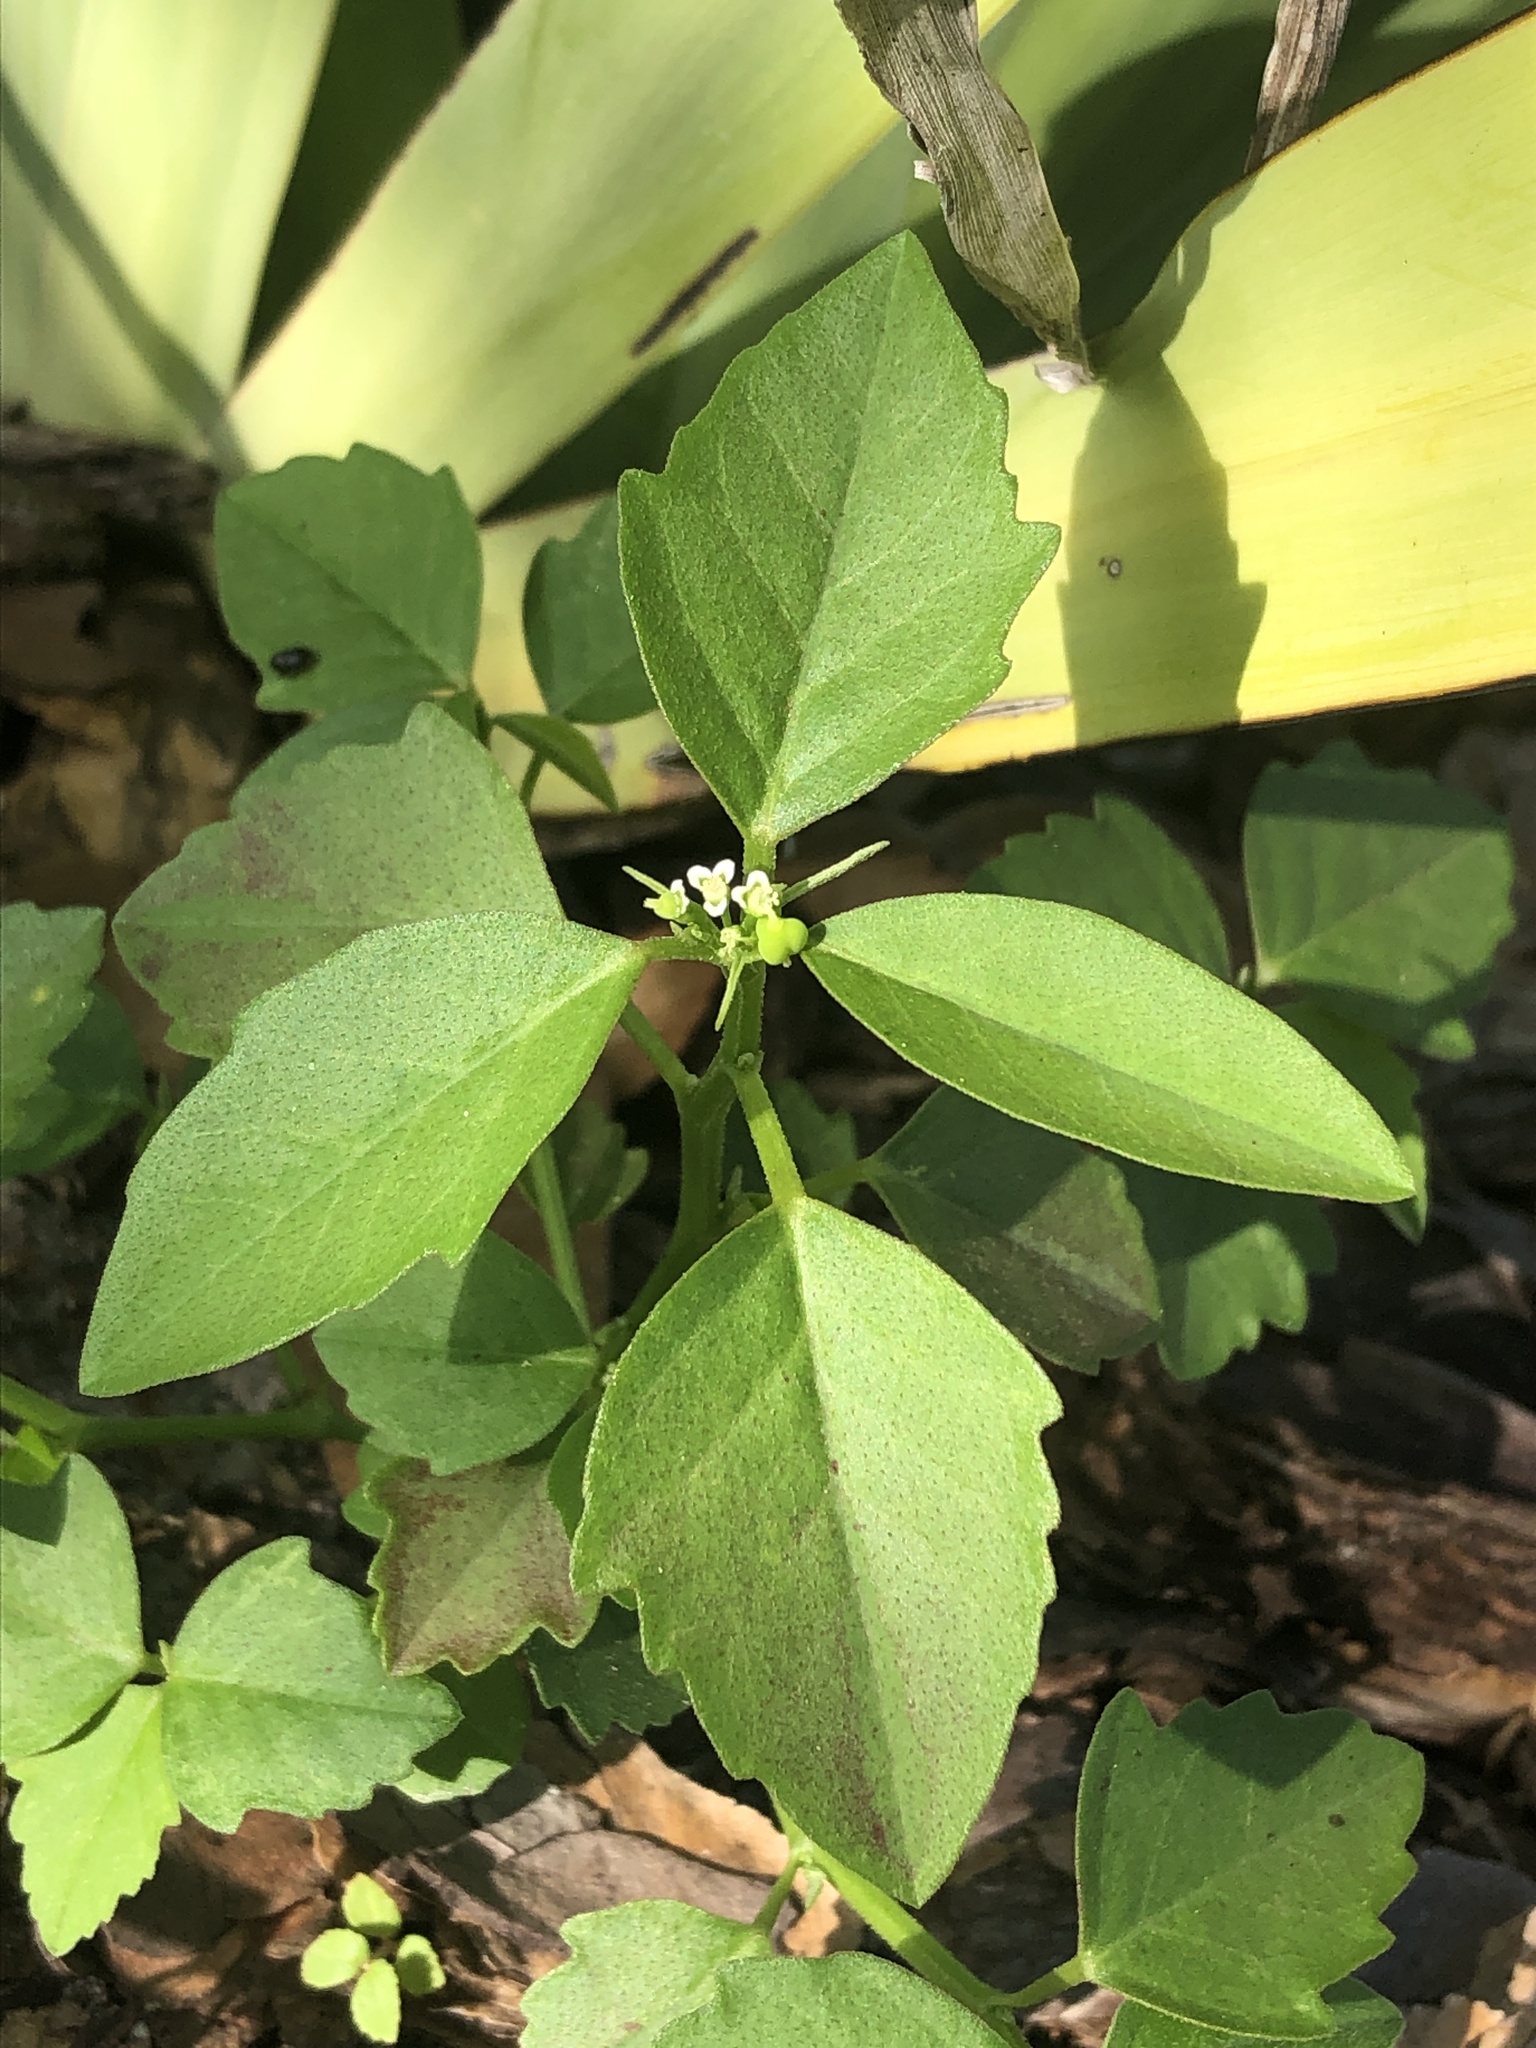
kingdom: Plantae
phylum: Tracheophyta
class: Magnoliopsida
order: Malpighiales
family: Euphorbiaceae
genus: Euphorbia
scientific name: Euphorbia graminea
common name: Grassleaf spurge
